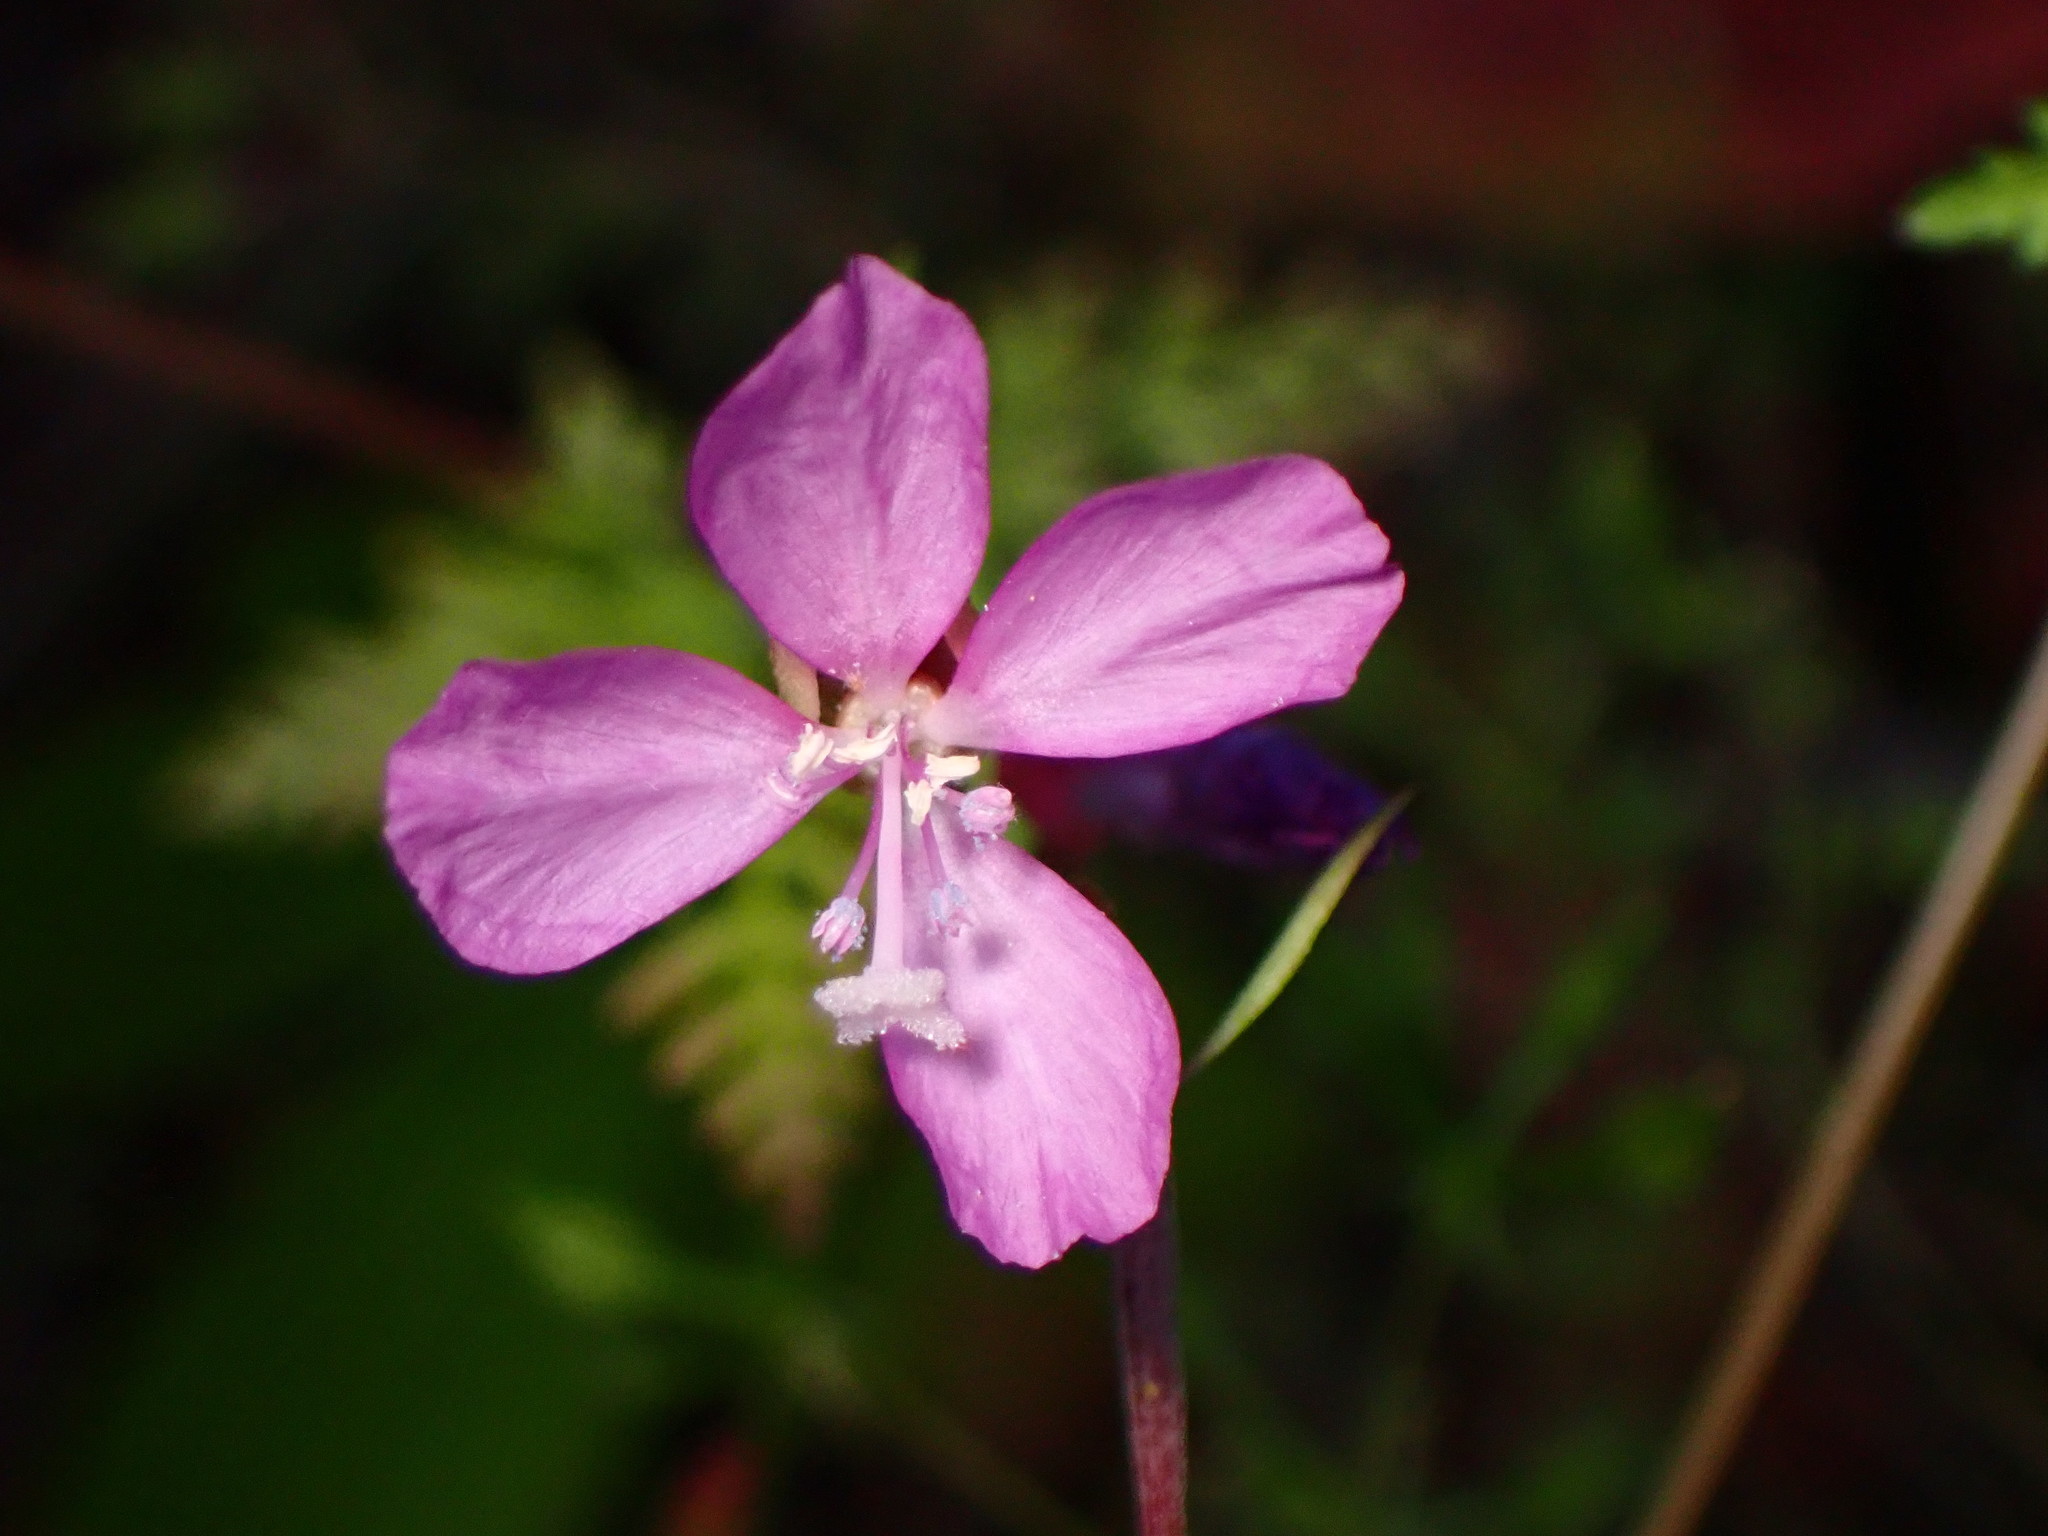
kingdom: Plantae
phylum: Tracheophyta
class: Magnoliopsida
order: Myrtales
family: Onagraceae
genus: Clarkia
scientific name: Clarkia modesta
